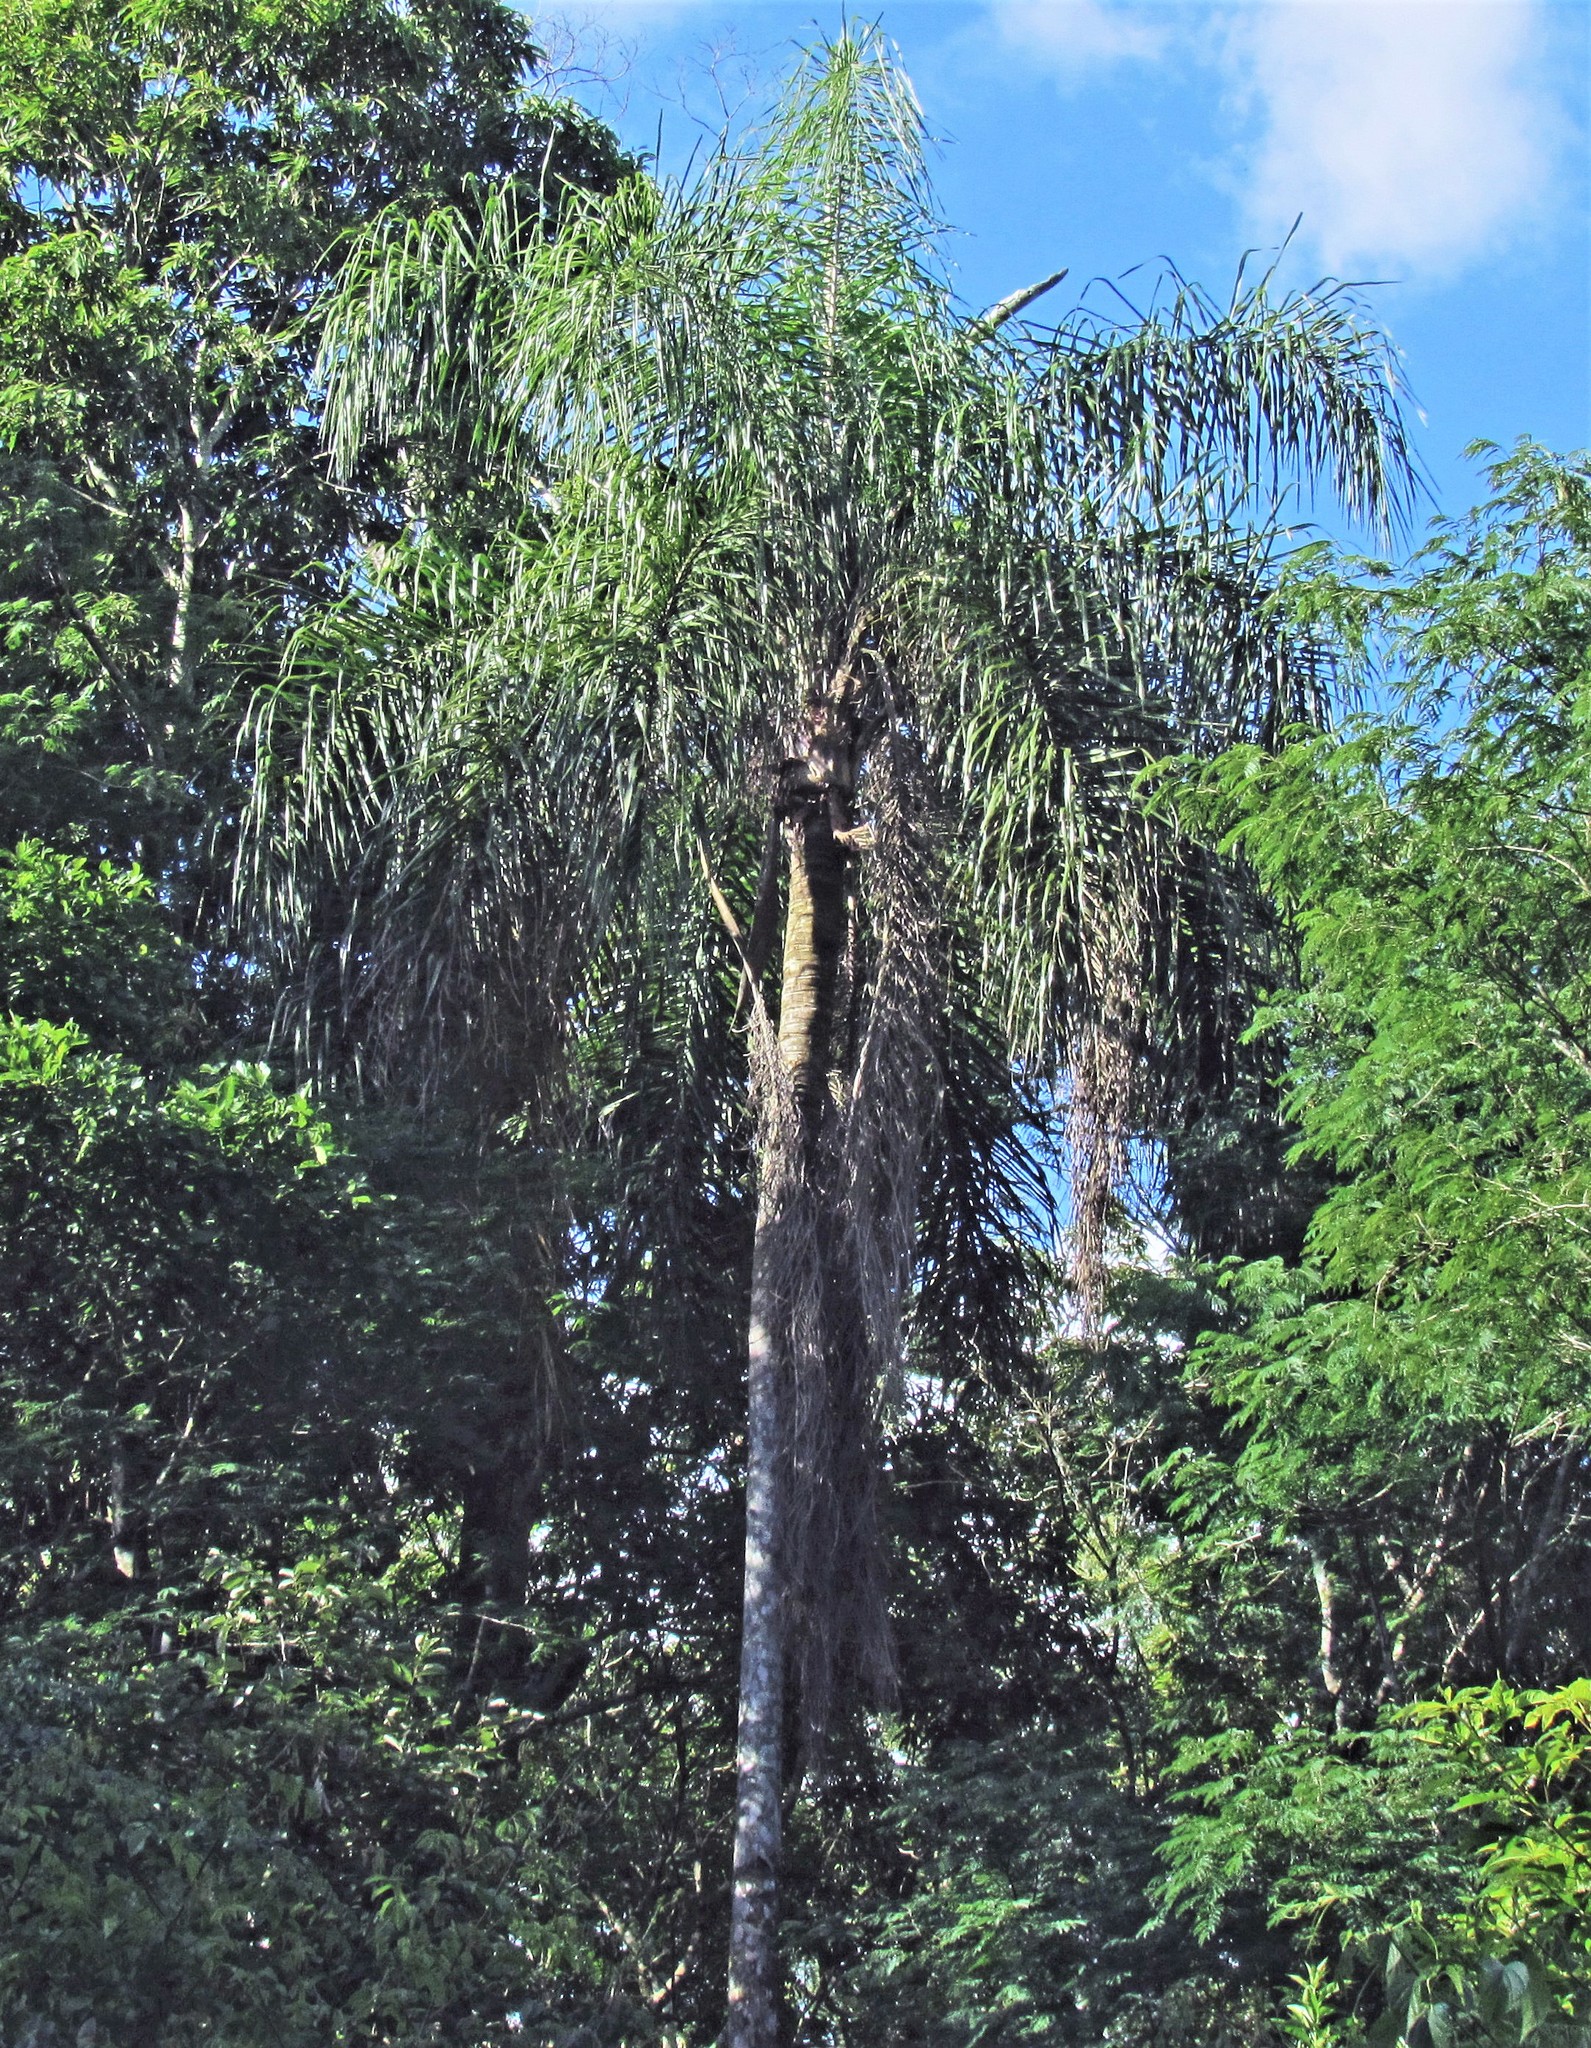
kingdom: Plantae
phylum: Tracheophyta
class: Liliopsida
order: Arecales
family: Arecaceae
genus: Syagrus
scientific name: Syagrus romanzoffiana
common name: Queen palm
